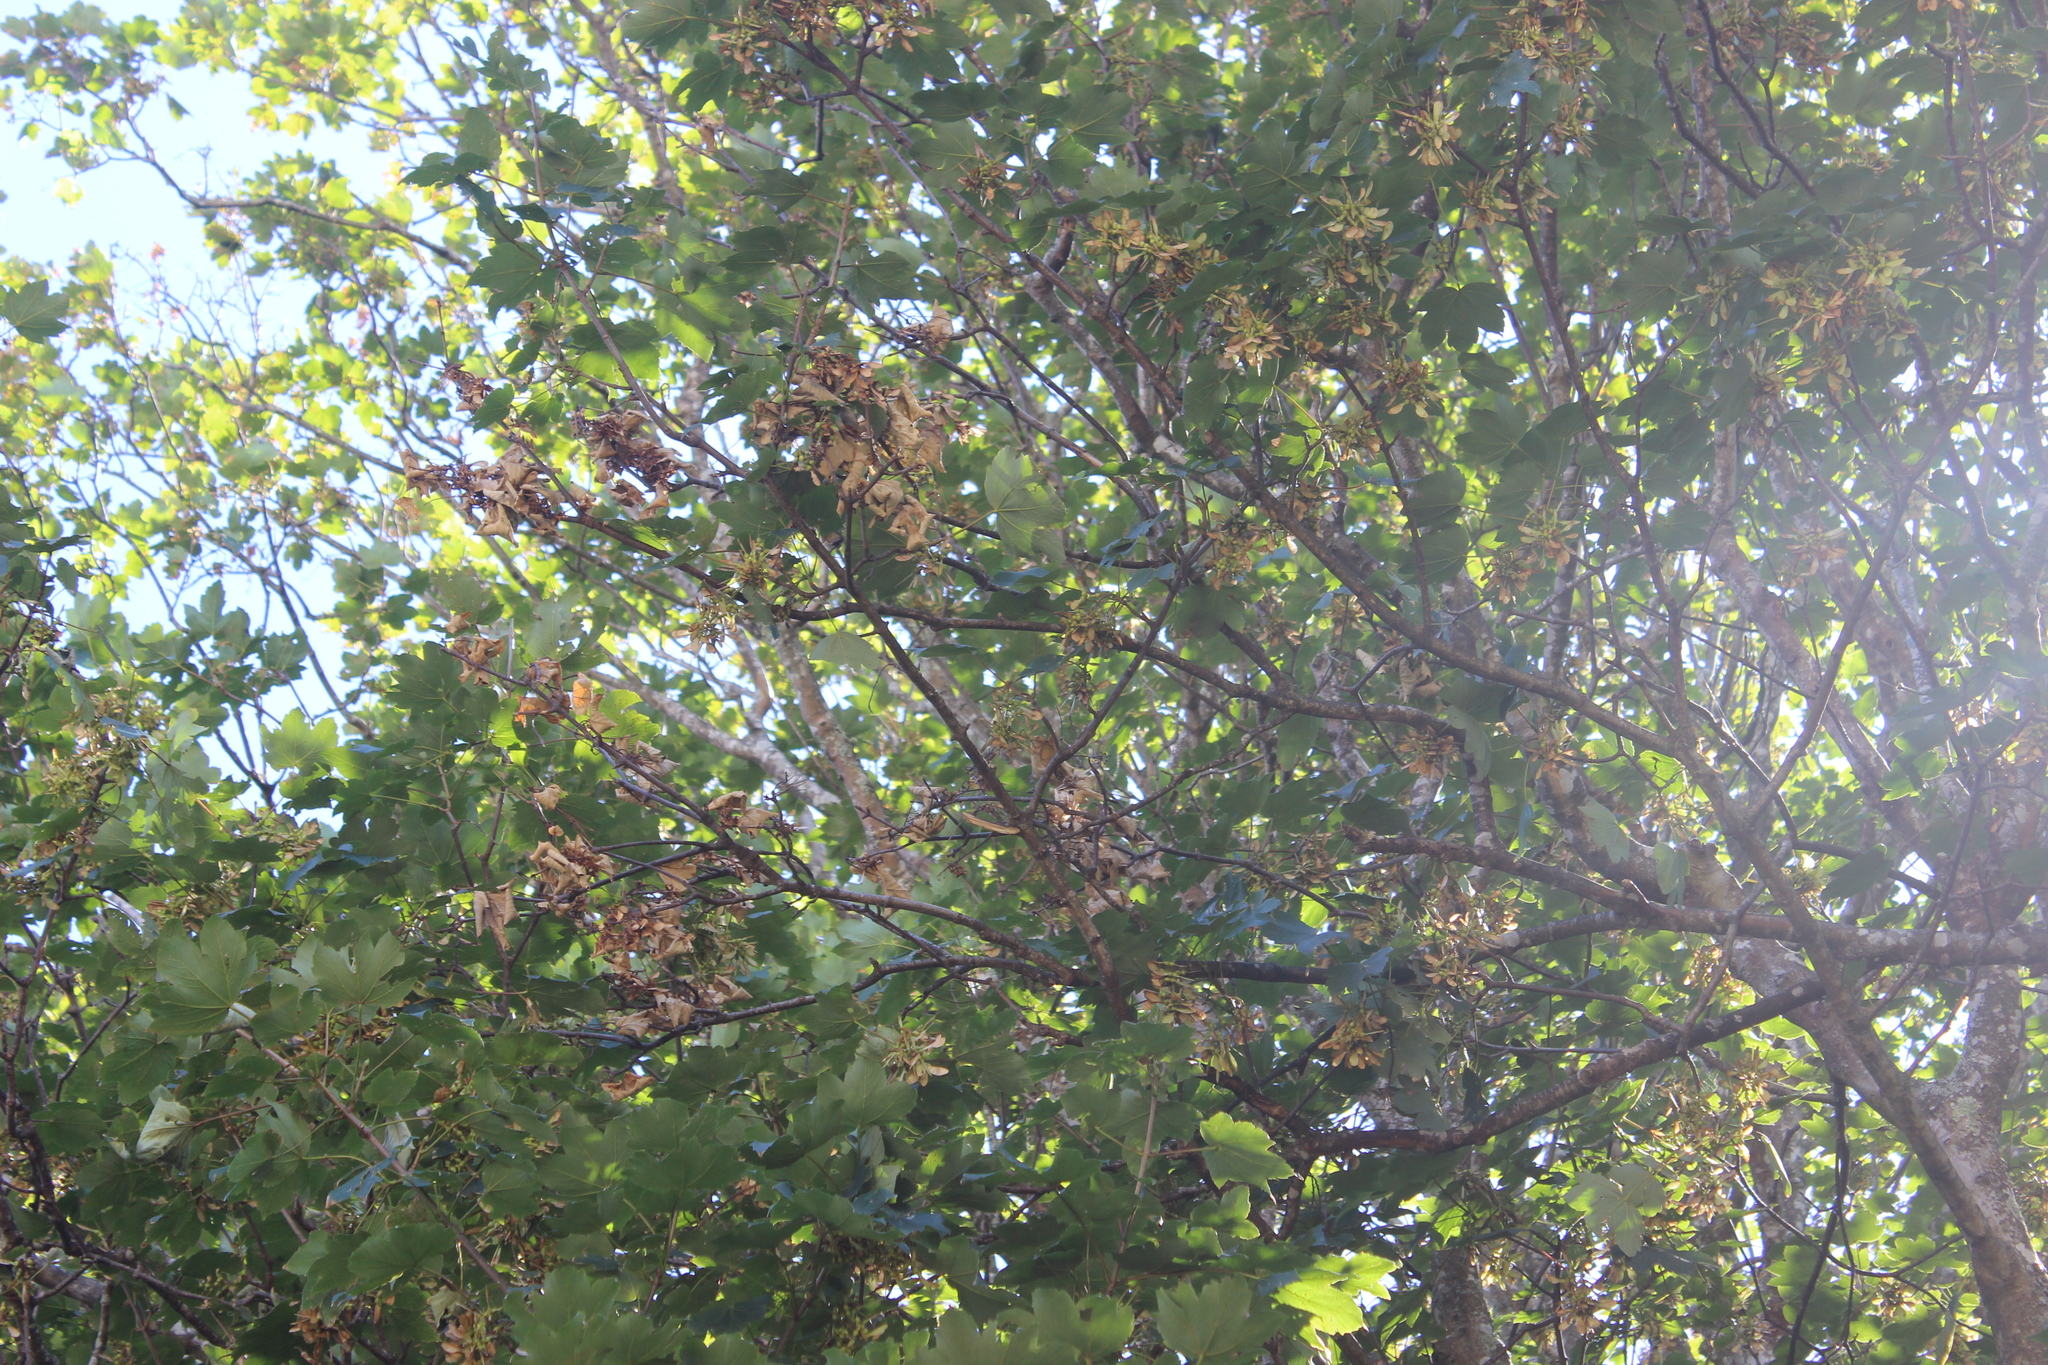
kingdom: Plantae
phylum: Tracheophyta
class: Magnoliopsida
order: Sapindales
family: Sapindaceae
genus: Acer
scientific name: Acer pseudoplatanus
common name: Sycamore
